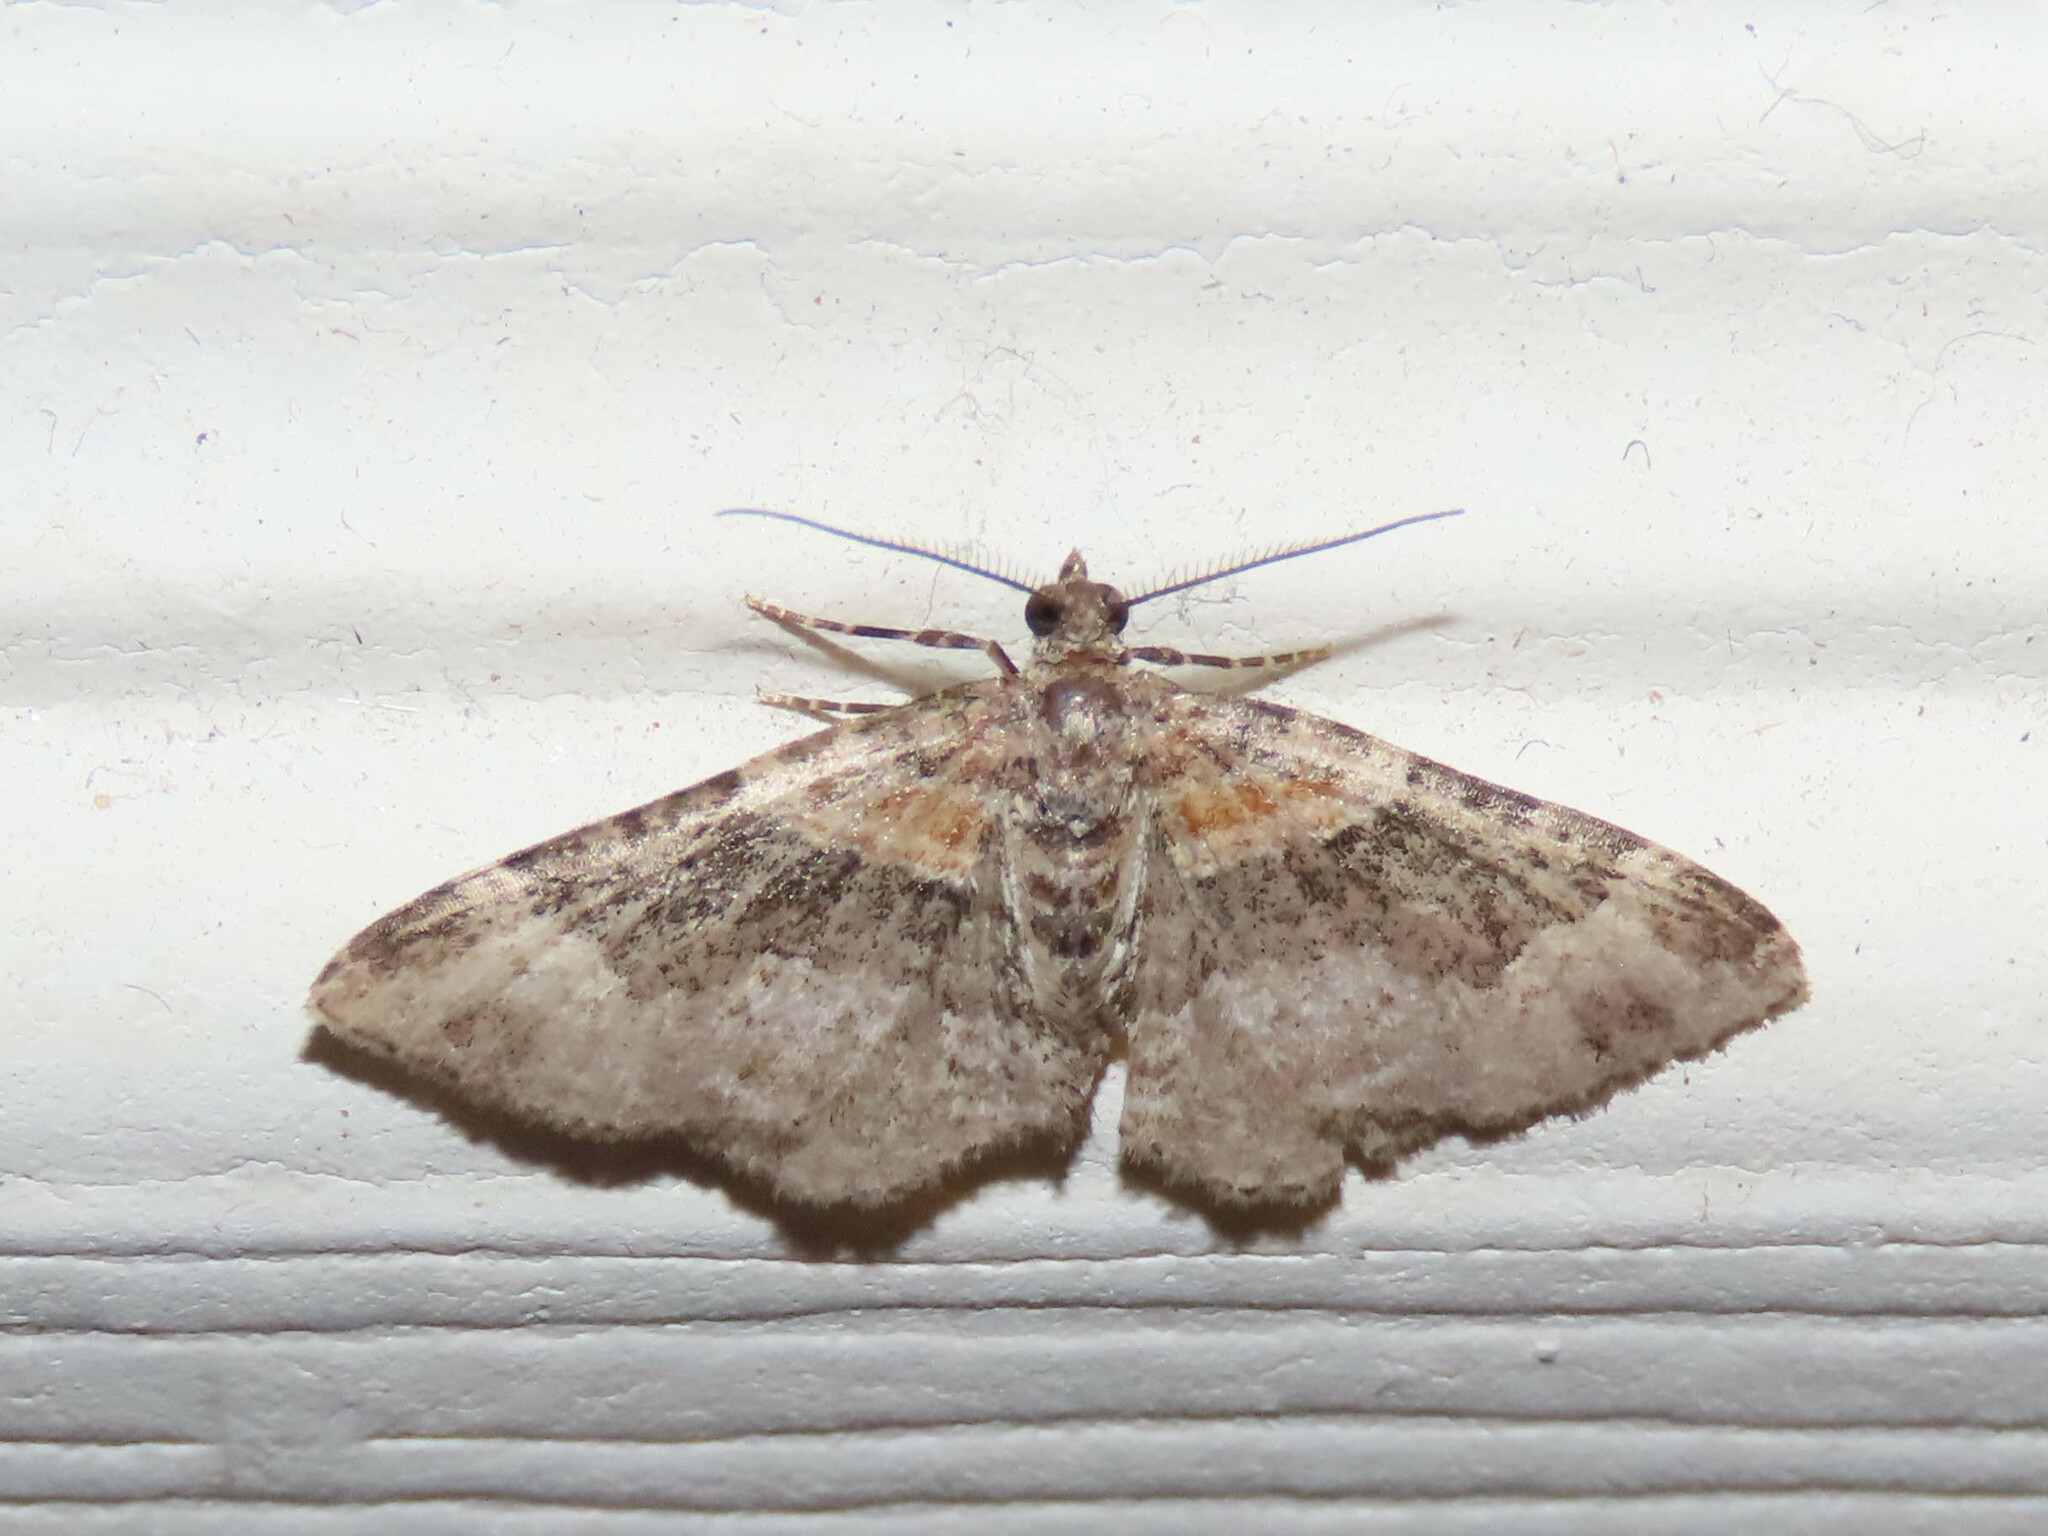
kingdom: Animalia
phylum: Arthropoda
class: Insecta
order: Lepidoptera
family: Geometridae
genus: Xanthorhoe
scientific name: Xanthorhoe ferrugata
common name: Dark-barred twin-spot carpet
